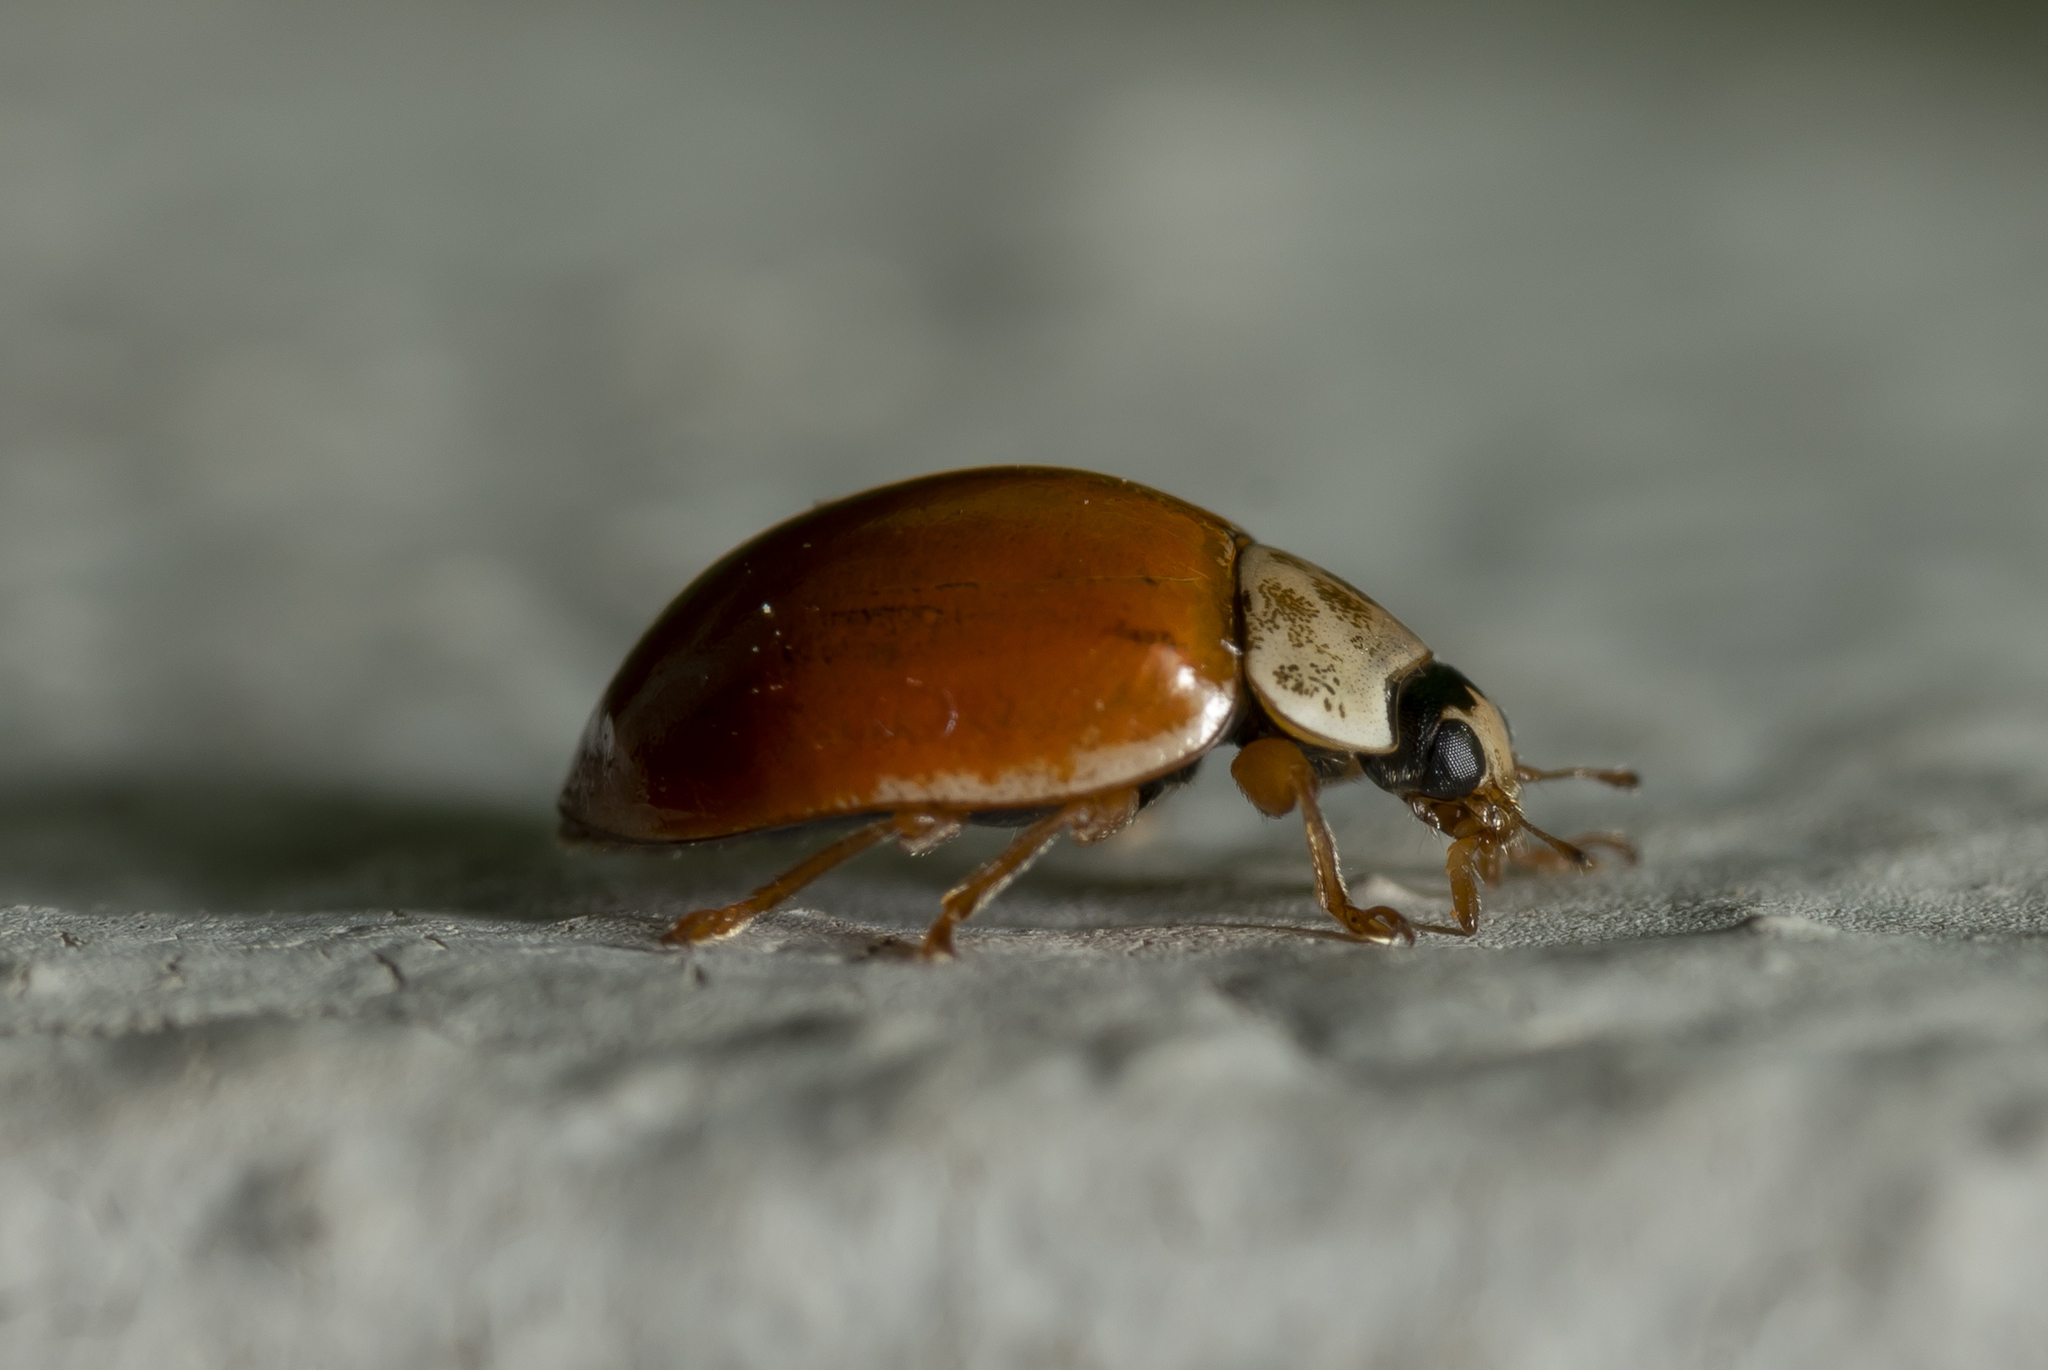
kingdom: Animalia
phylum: Arthropoda
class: Insecta
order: Coleoptera
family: Coccinellidae
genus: Adalia
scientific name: Adalia decempunctata
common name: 10-spot ladybird
